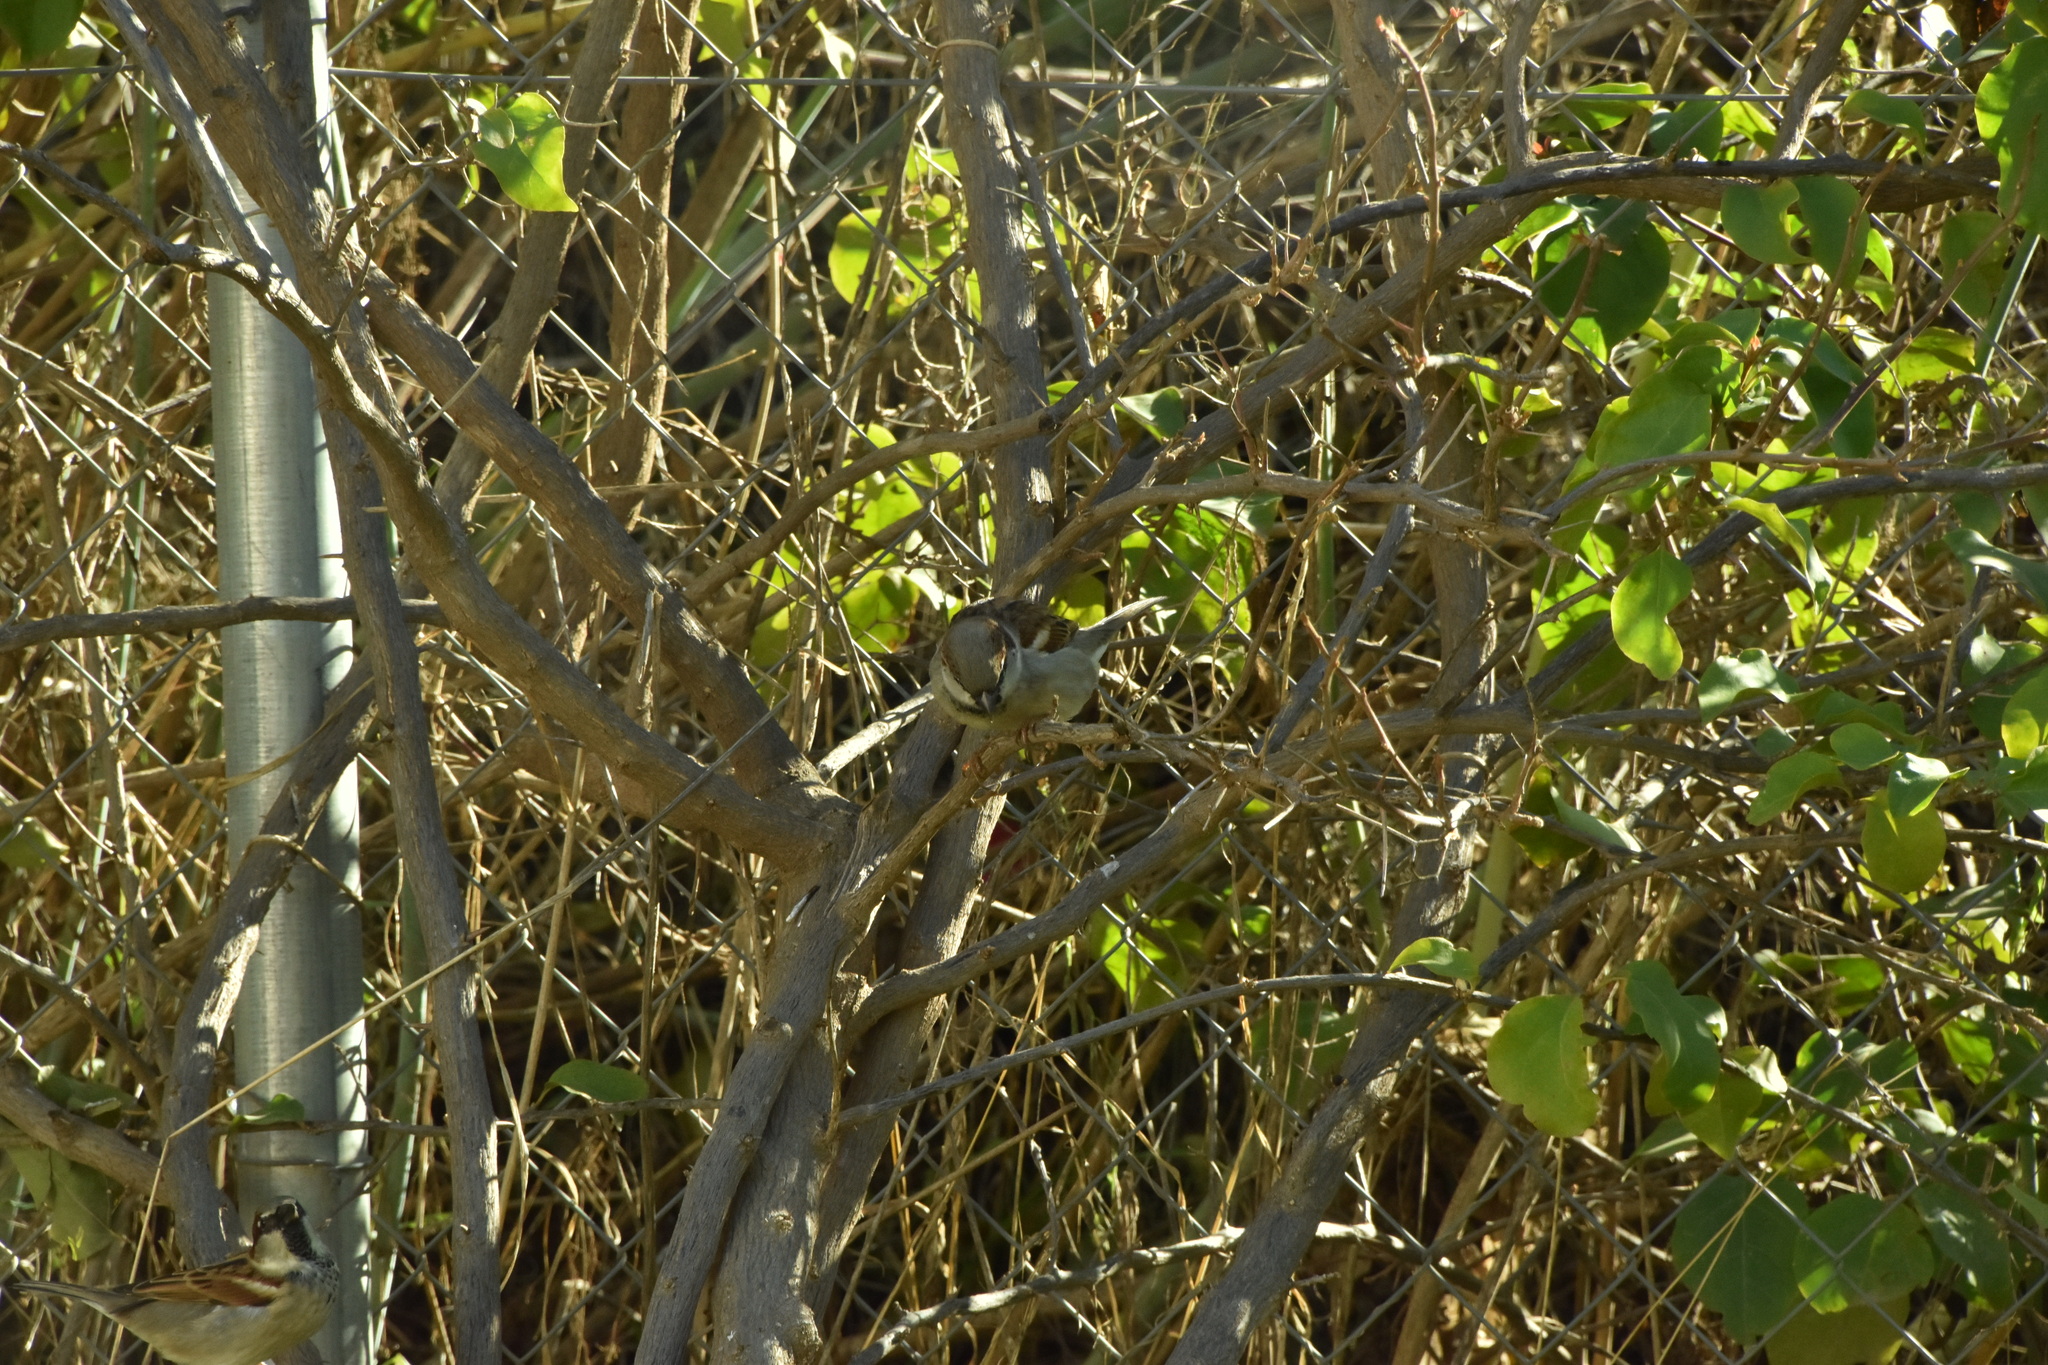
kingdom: Animalia
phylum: Chordata
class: Aves
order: Passeriformes
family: Passeridae
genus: Passer
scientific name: Passer domesticus
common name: House sparrow
